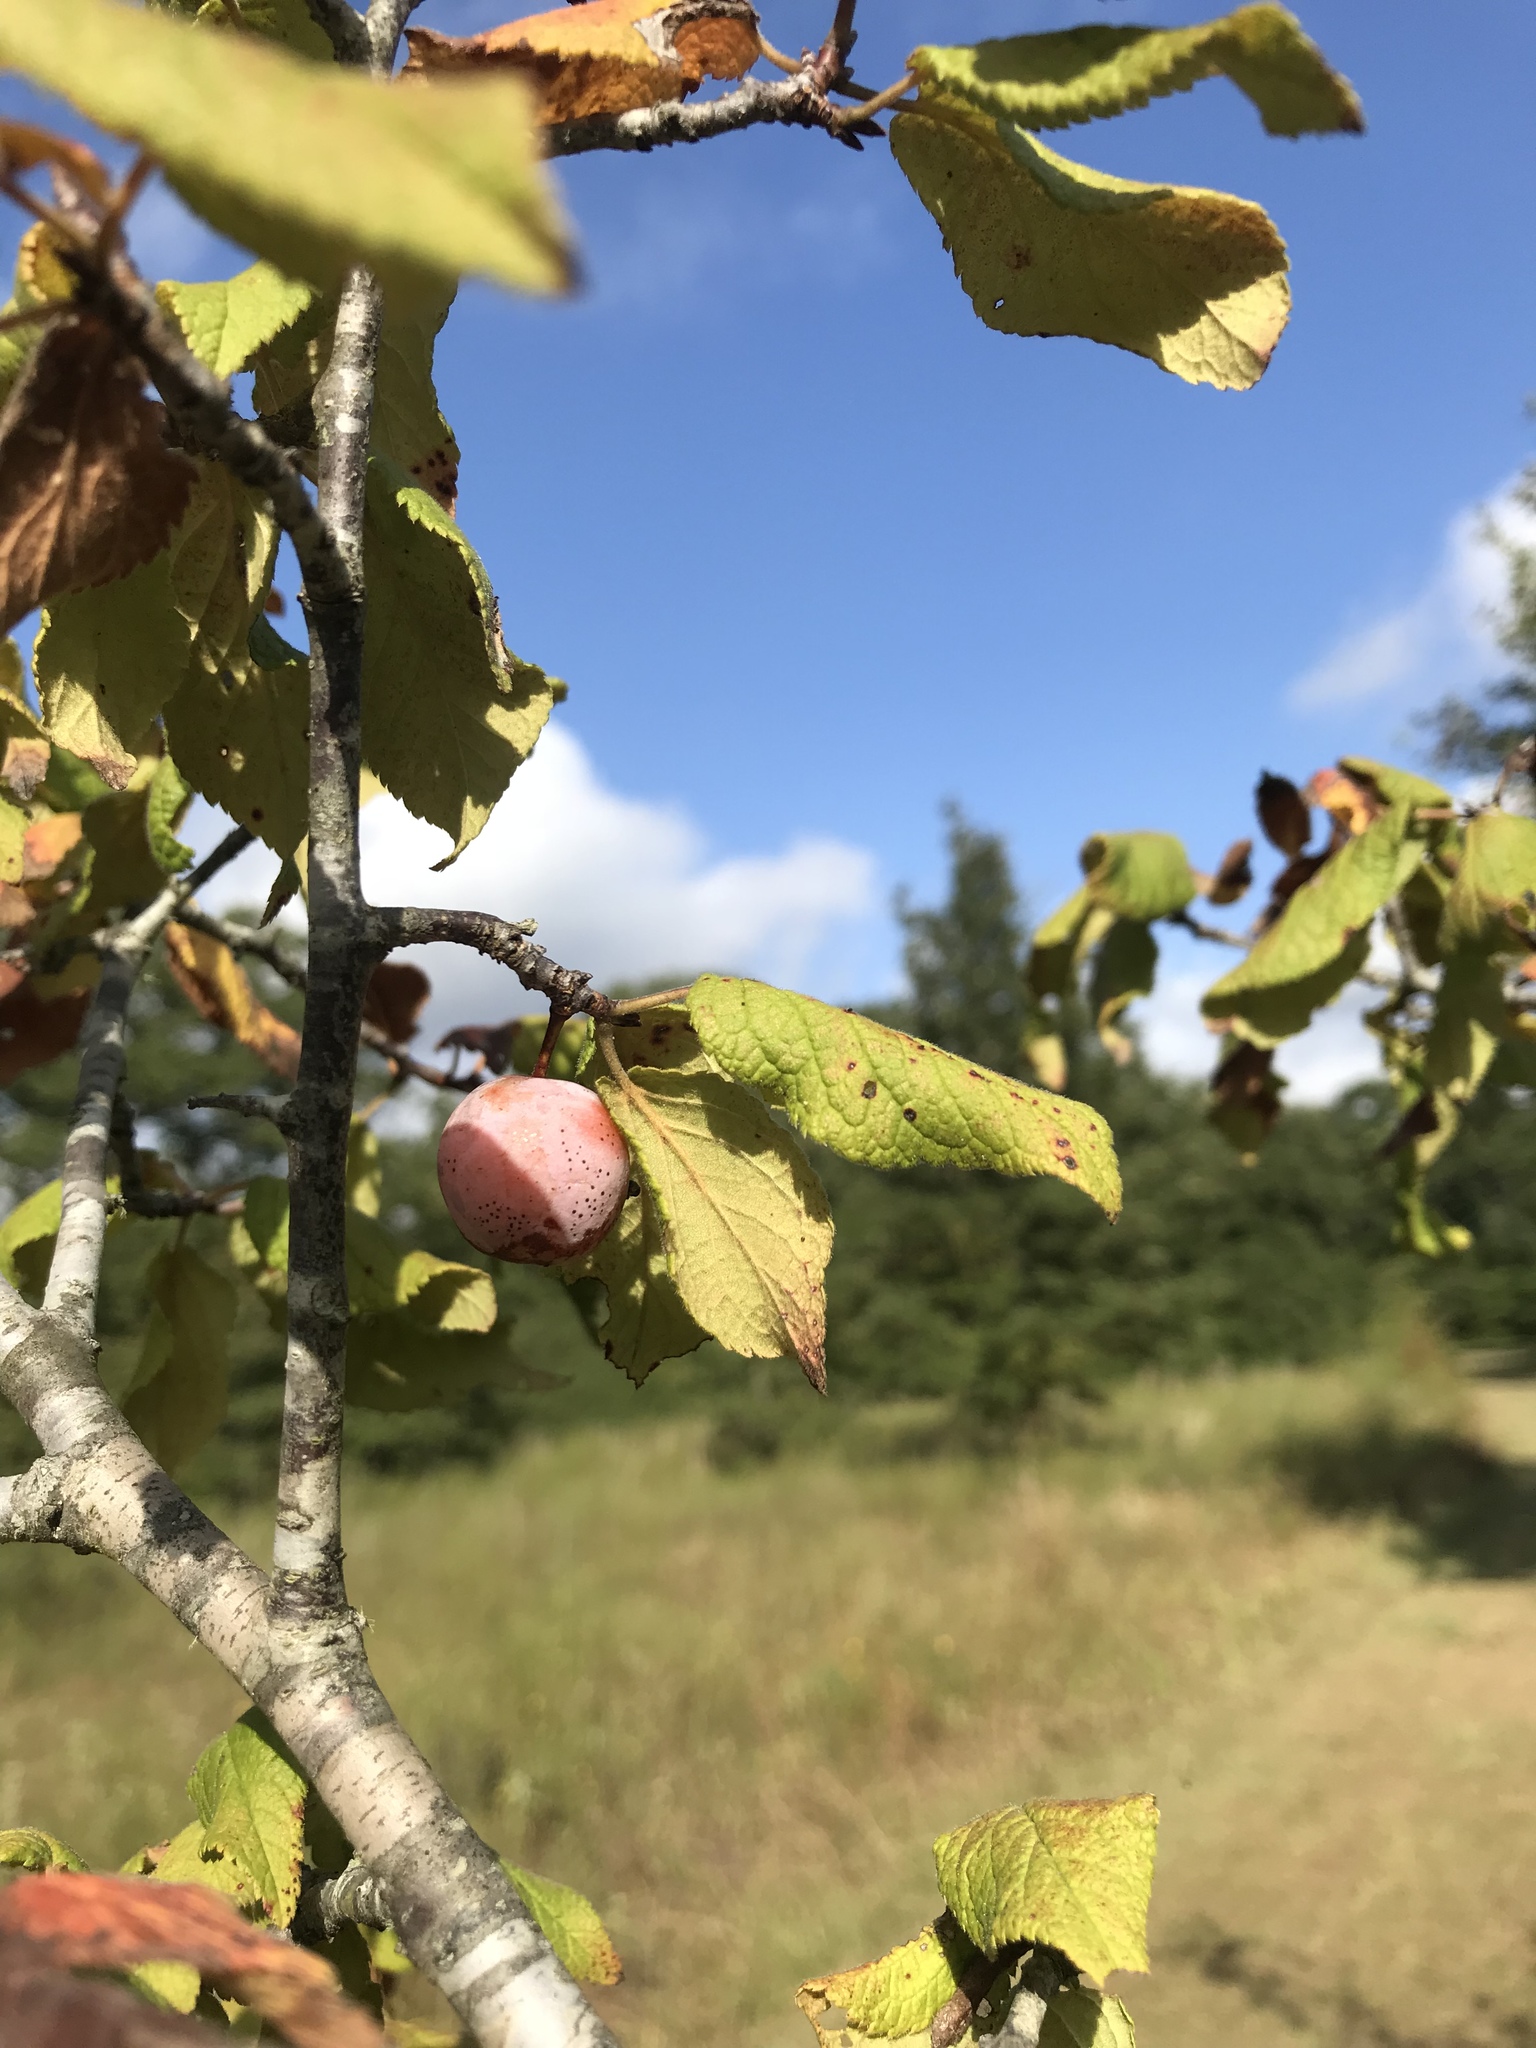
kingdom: Plantae
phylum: Tracheophyta
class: Magnoliopsida
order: Rosales
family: Rosaceae
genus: Prunus
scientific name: Prunus mexicana
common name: Mexican plum
